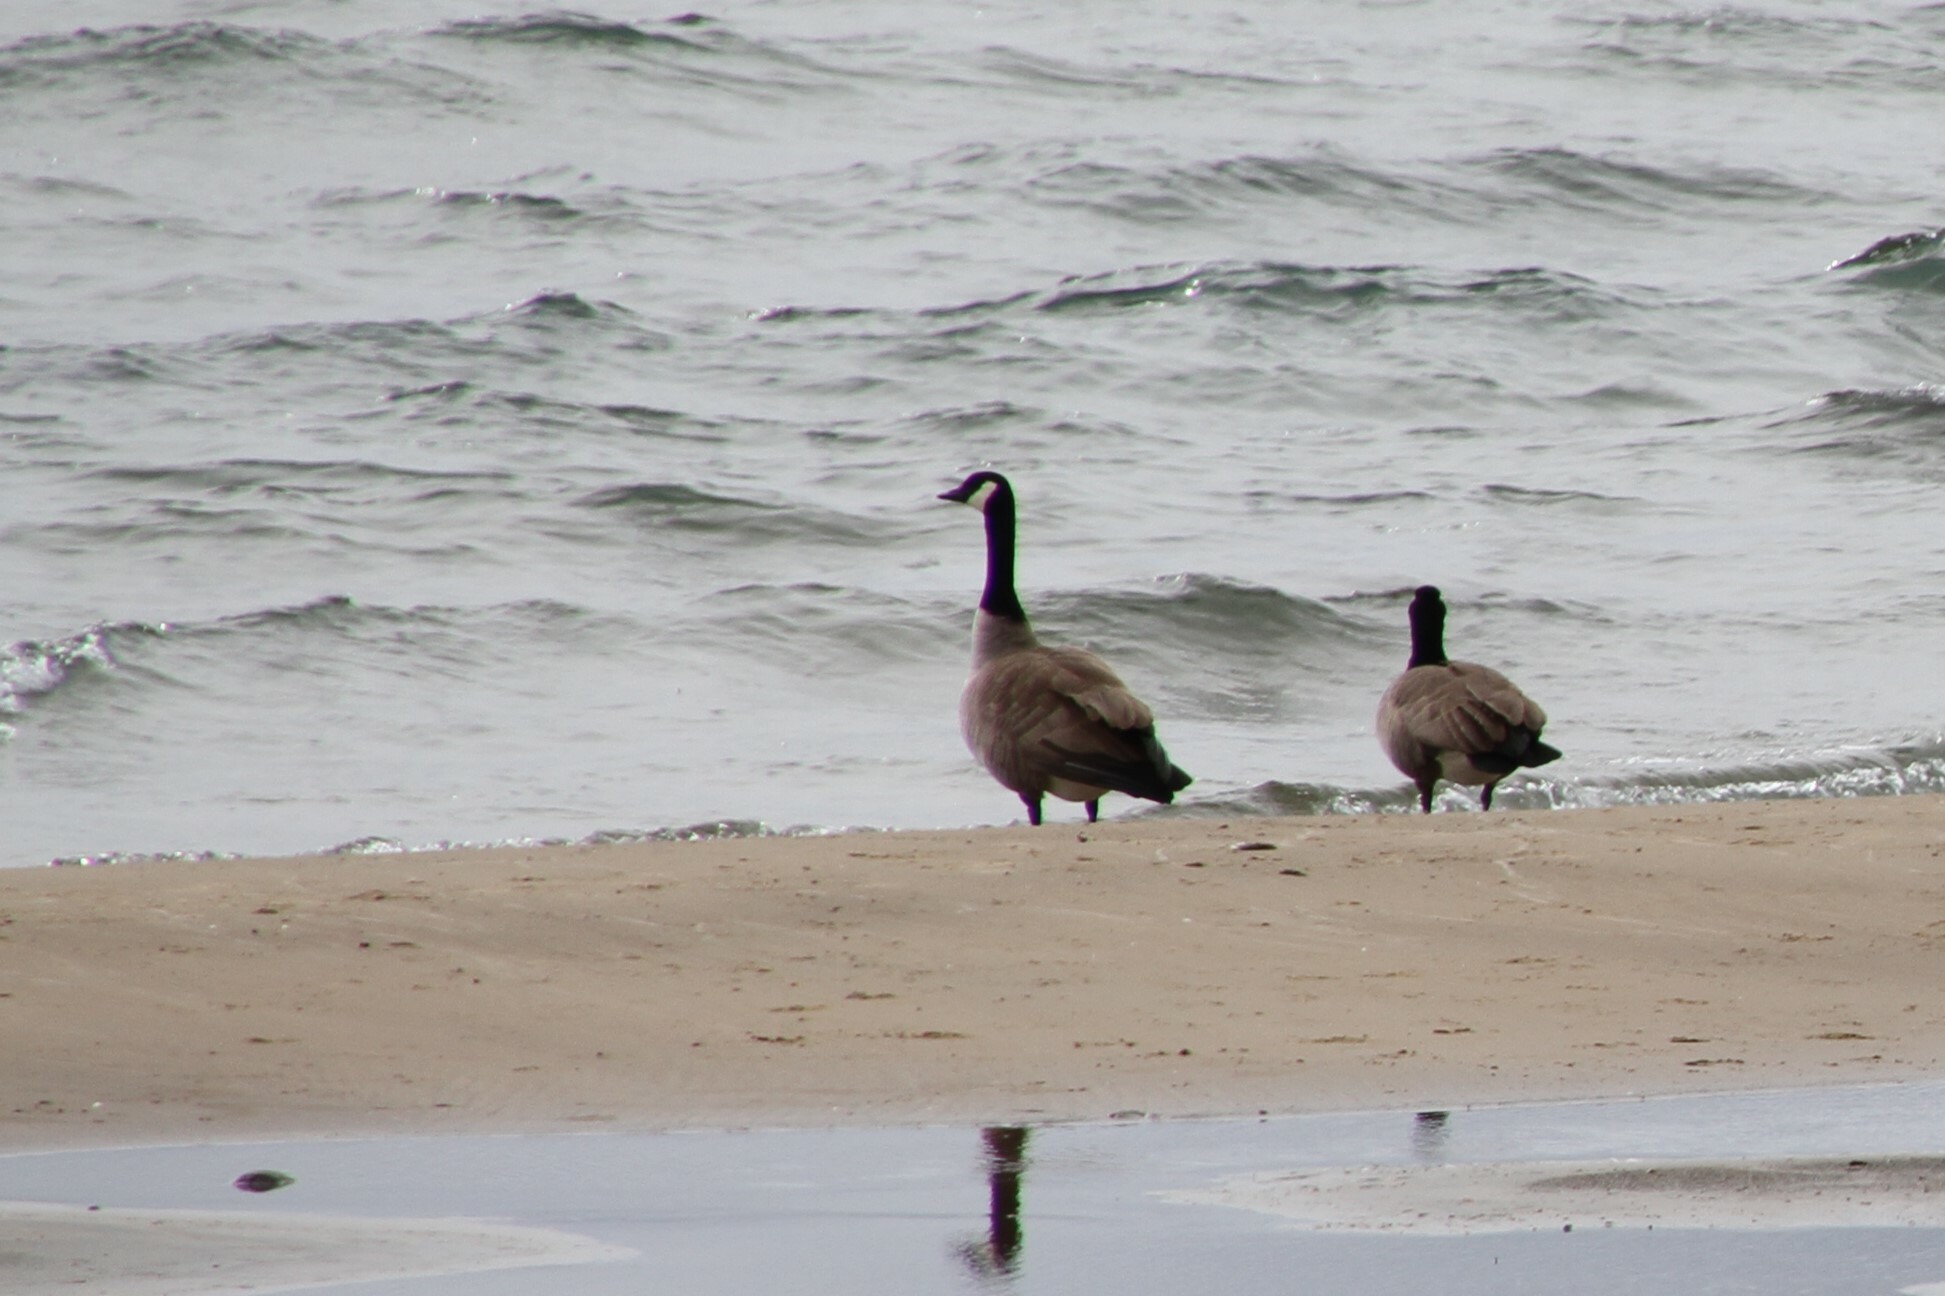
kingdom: Animalia
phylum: Chordata
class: Aves
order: Anseriformes
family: Anatidae
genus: Branta
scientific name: Branta canadensis
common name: Canada goose
